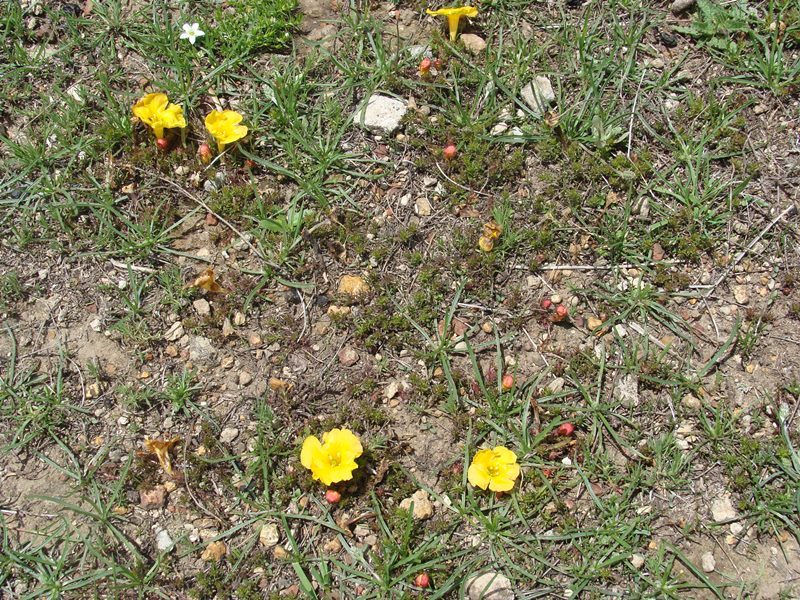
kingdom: Plantae
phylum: Tracheophyta
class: Magnoliopsida
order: Lamiales
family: Orobanchaceae
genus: Silviella
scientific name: Silviella prostrata
